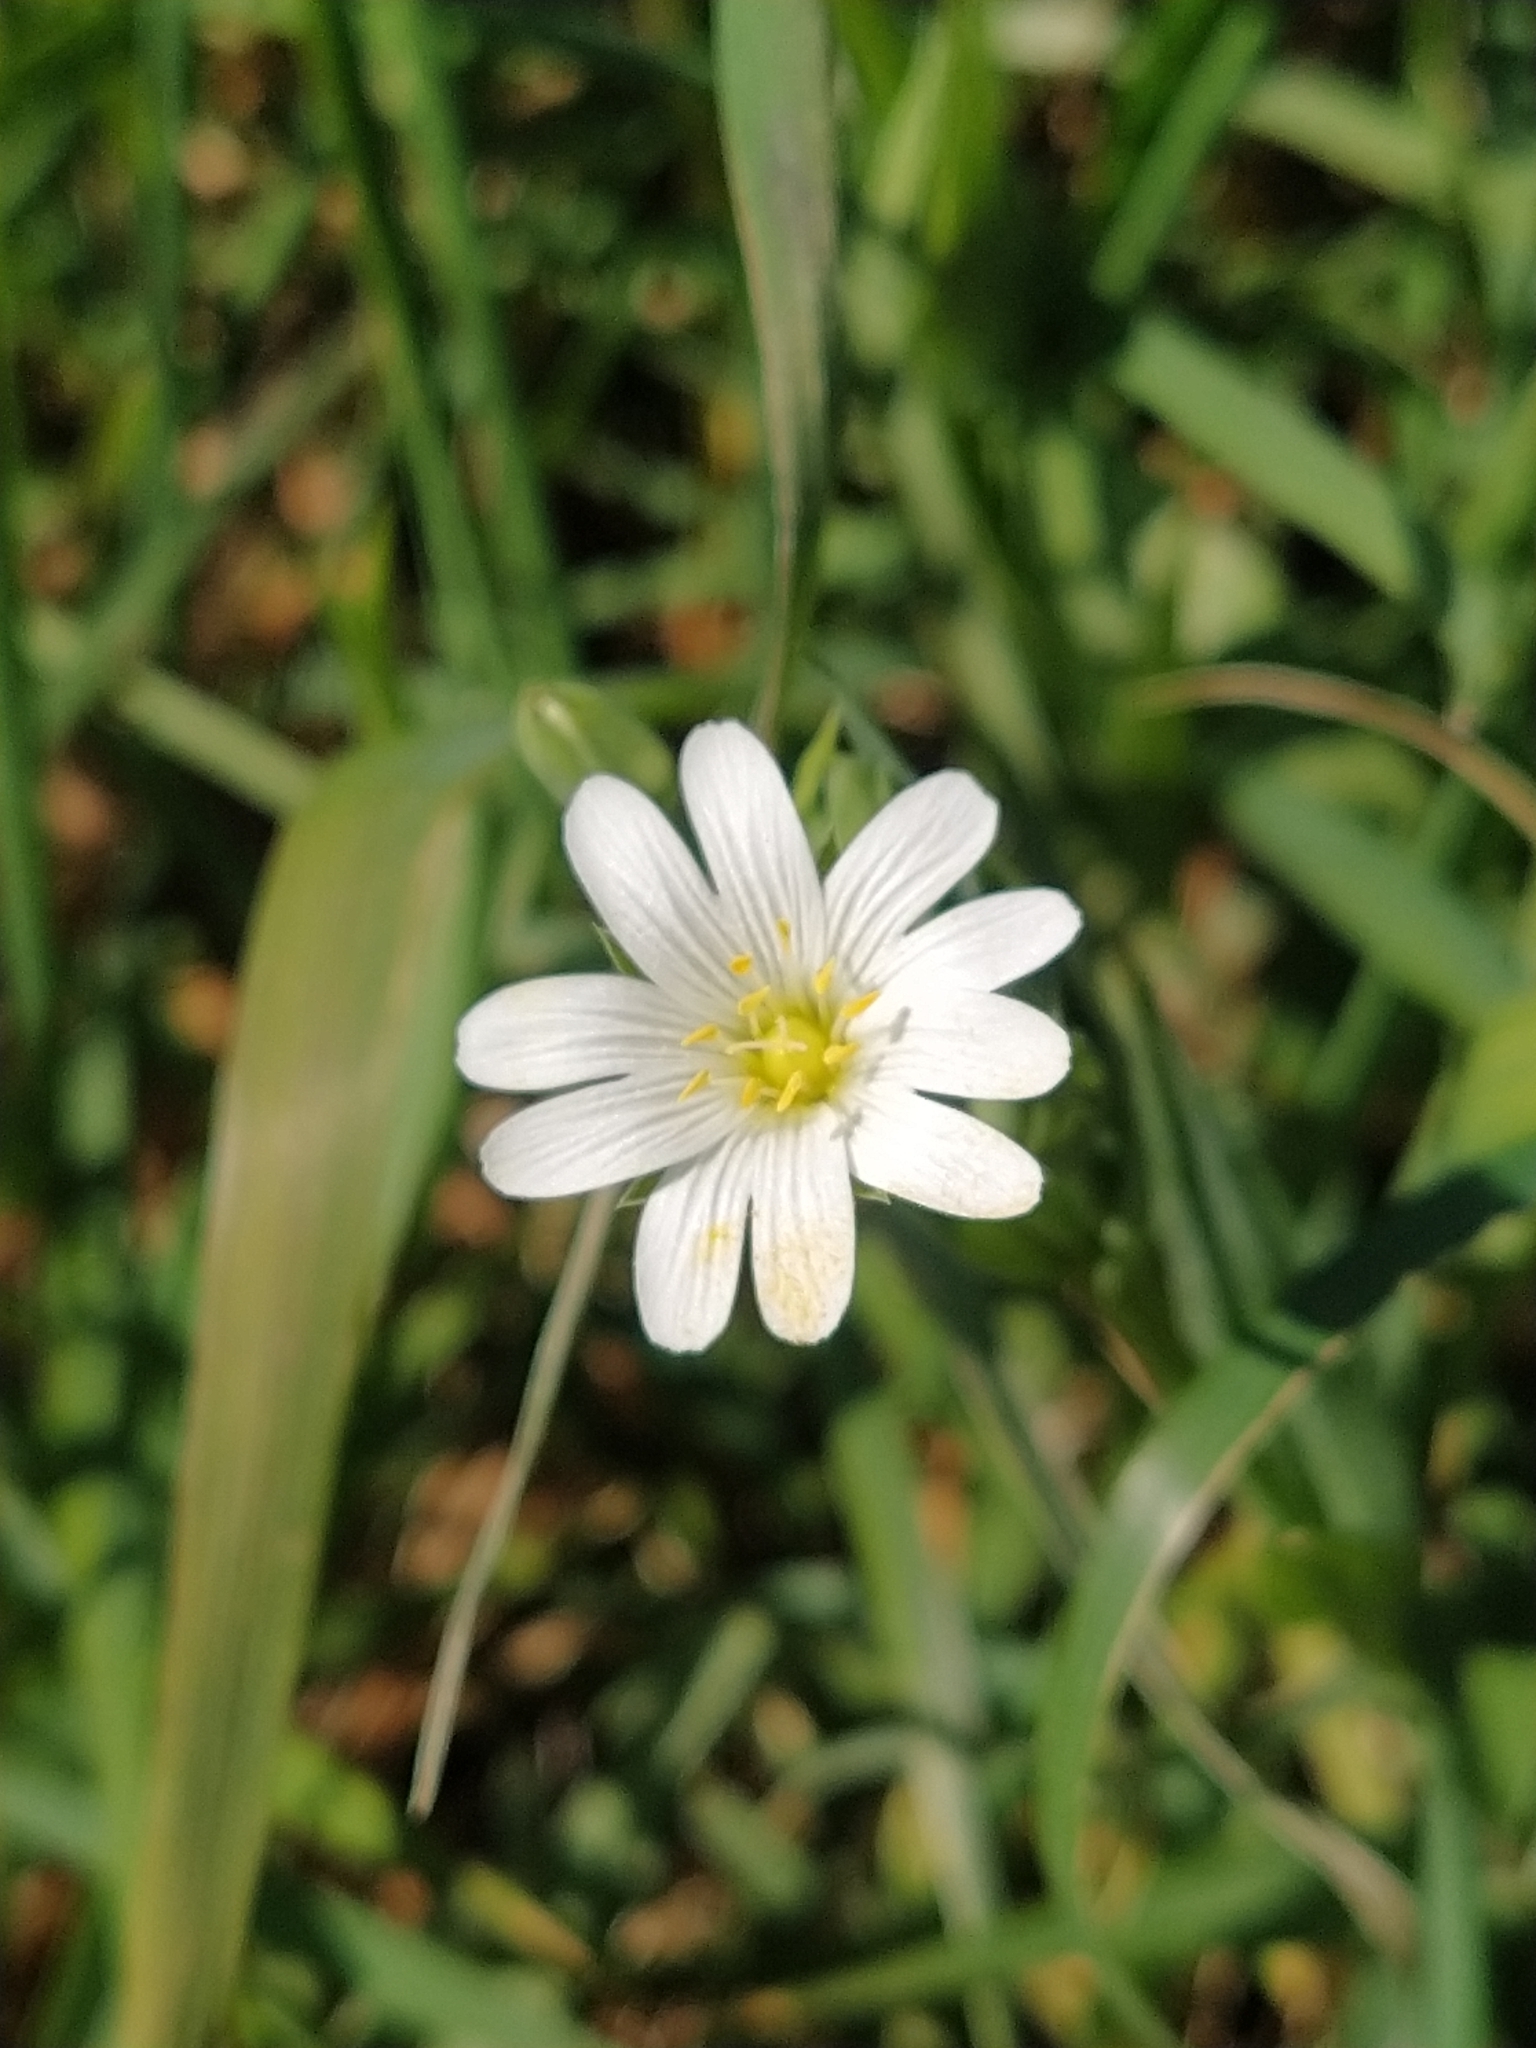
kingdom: Plantae
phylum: Tracheophyta
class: Magnoliopsida
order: Caryophyllales
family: Caryophyllaceae
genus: Rabelera
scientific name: Rabelera holostea
